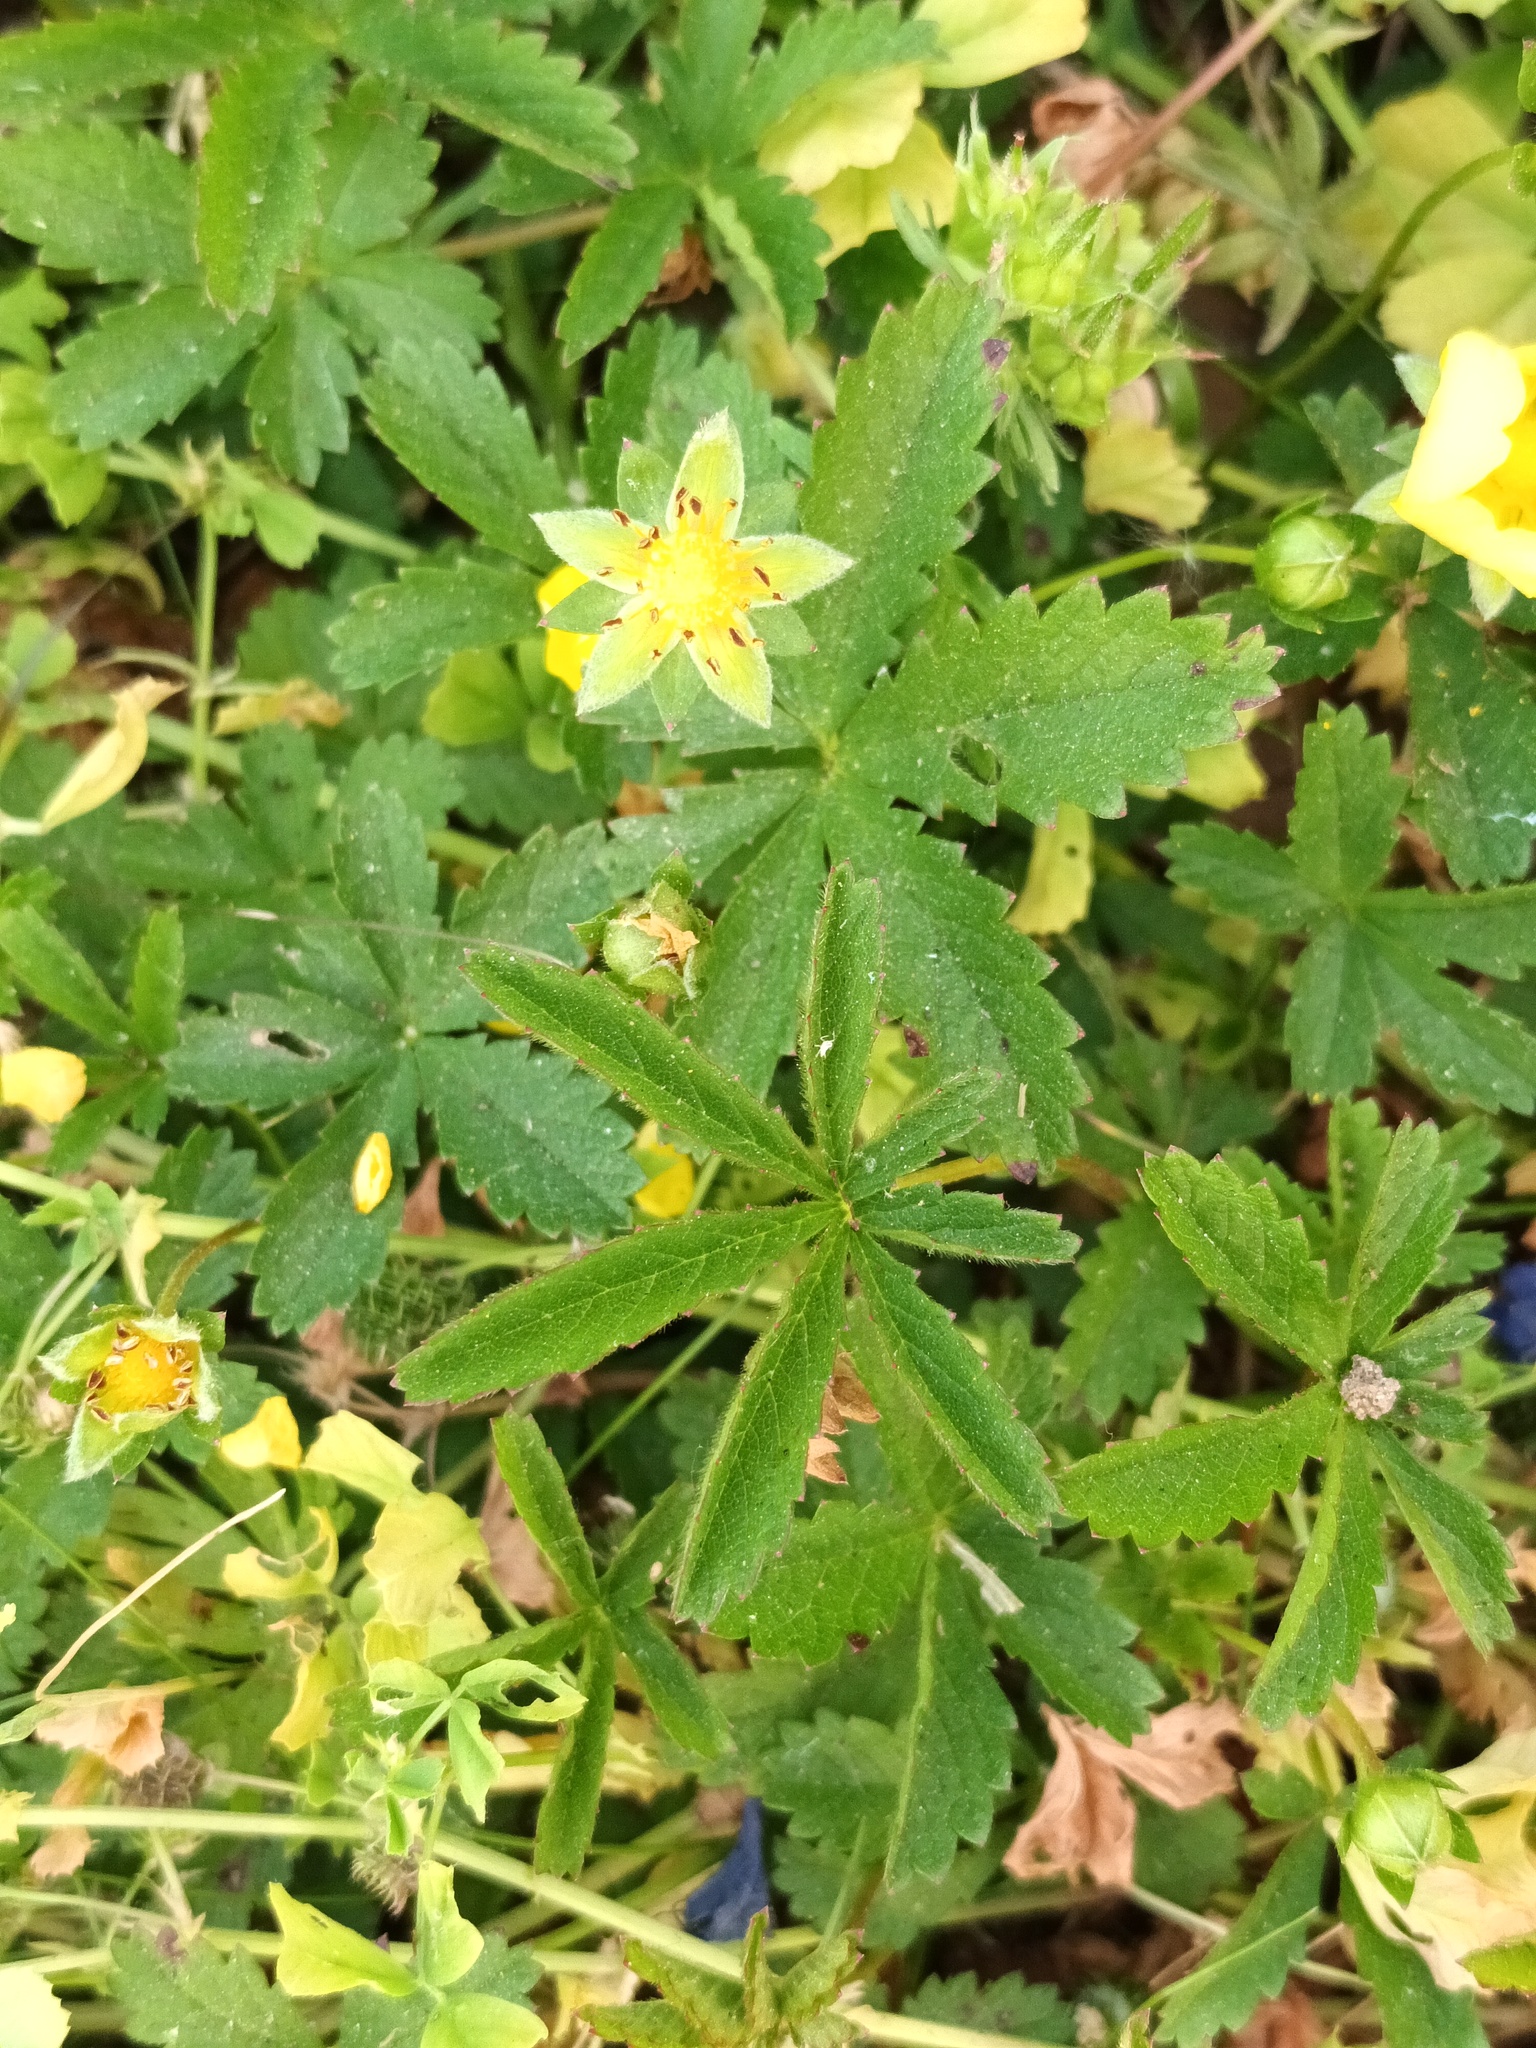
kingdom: Plantae
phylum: Tracheophyta
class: Magnoliopsida
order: Rosales
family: Rosaceae
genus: Potentilla
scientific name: Potentilla reptans
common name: Creeping cinquefoil
